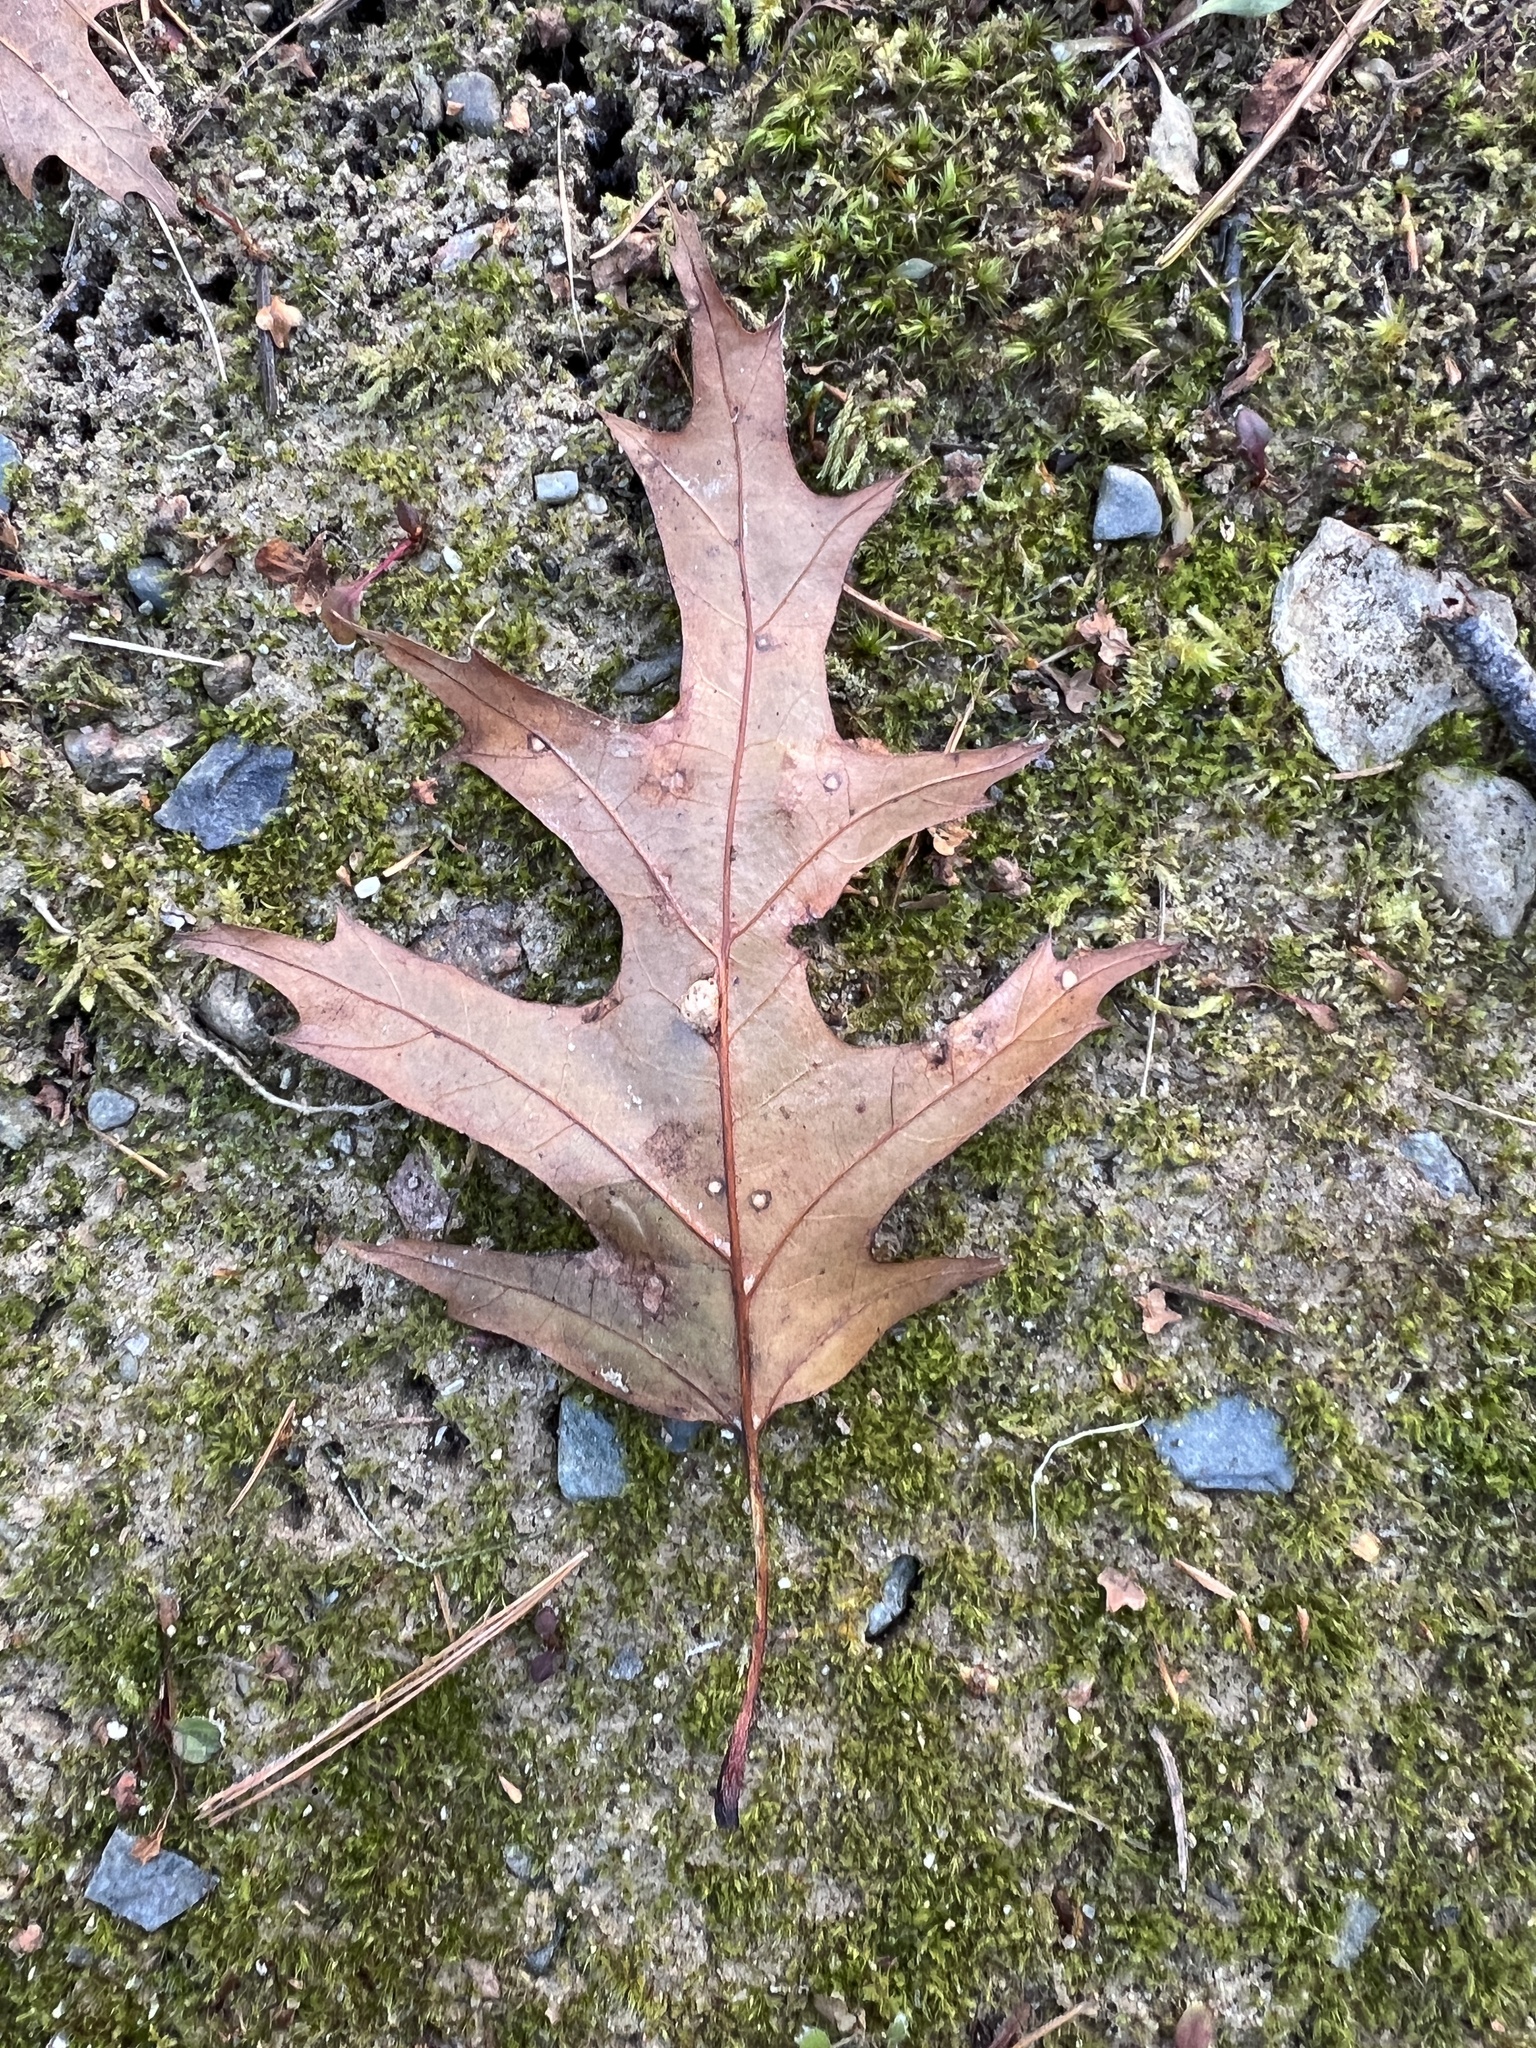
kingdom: Plantae
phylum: Tracheophyta
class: Magnoliopsida
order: Fagales
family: Fagaceae
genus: Quercus
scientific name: Quercus rubra
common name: Red oak
